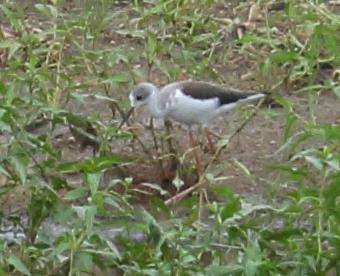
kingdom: Animalia
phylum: Chordata
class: Aves
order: Charadriiformes
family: Recurvirostridae
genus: Himantopus
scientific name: Himantopus himantopus
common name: Black-winged stilt
